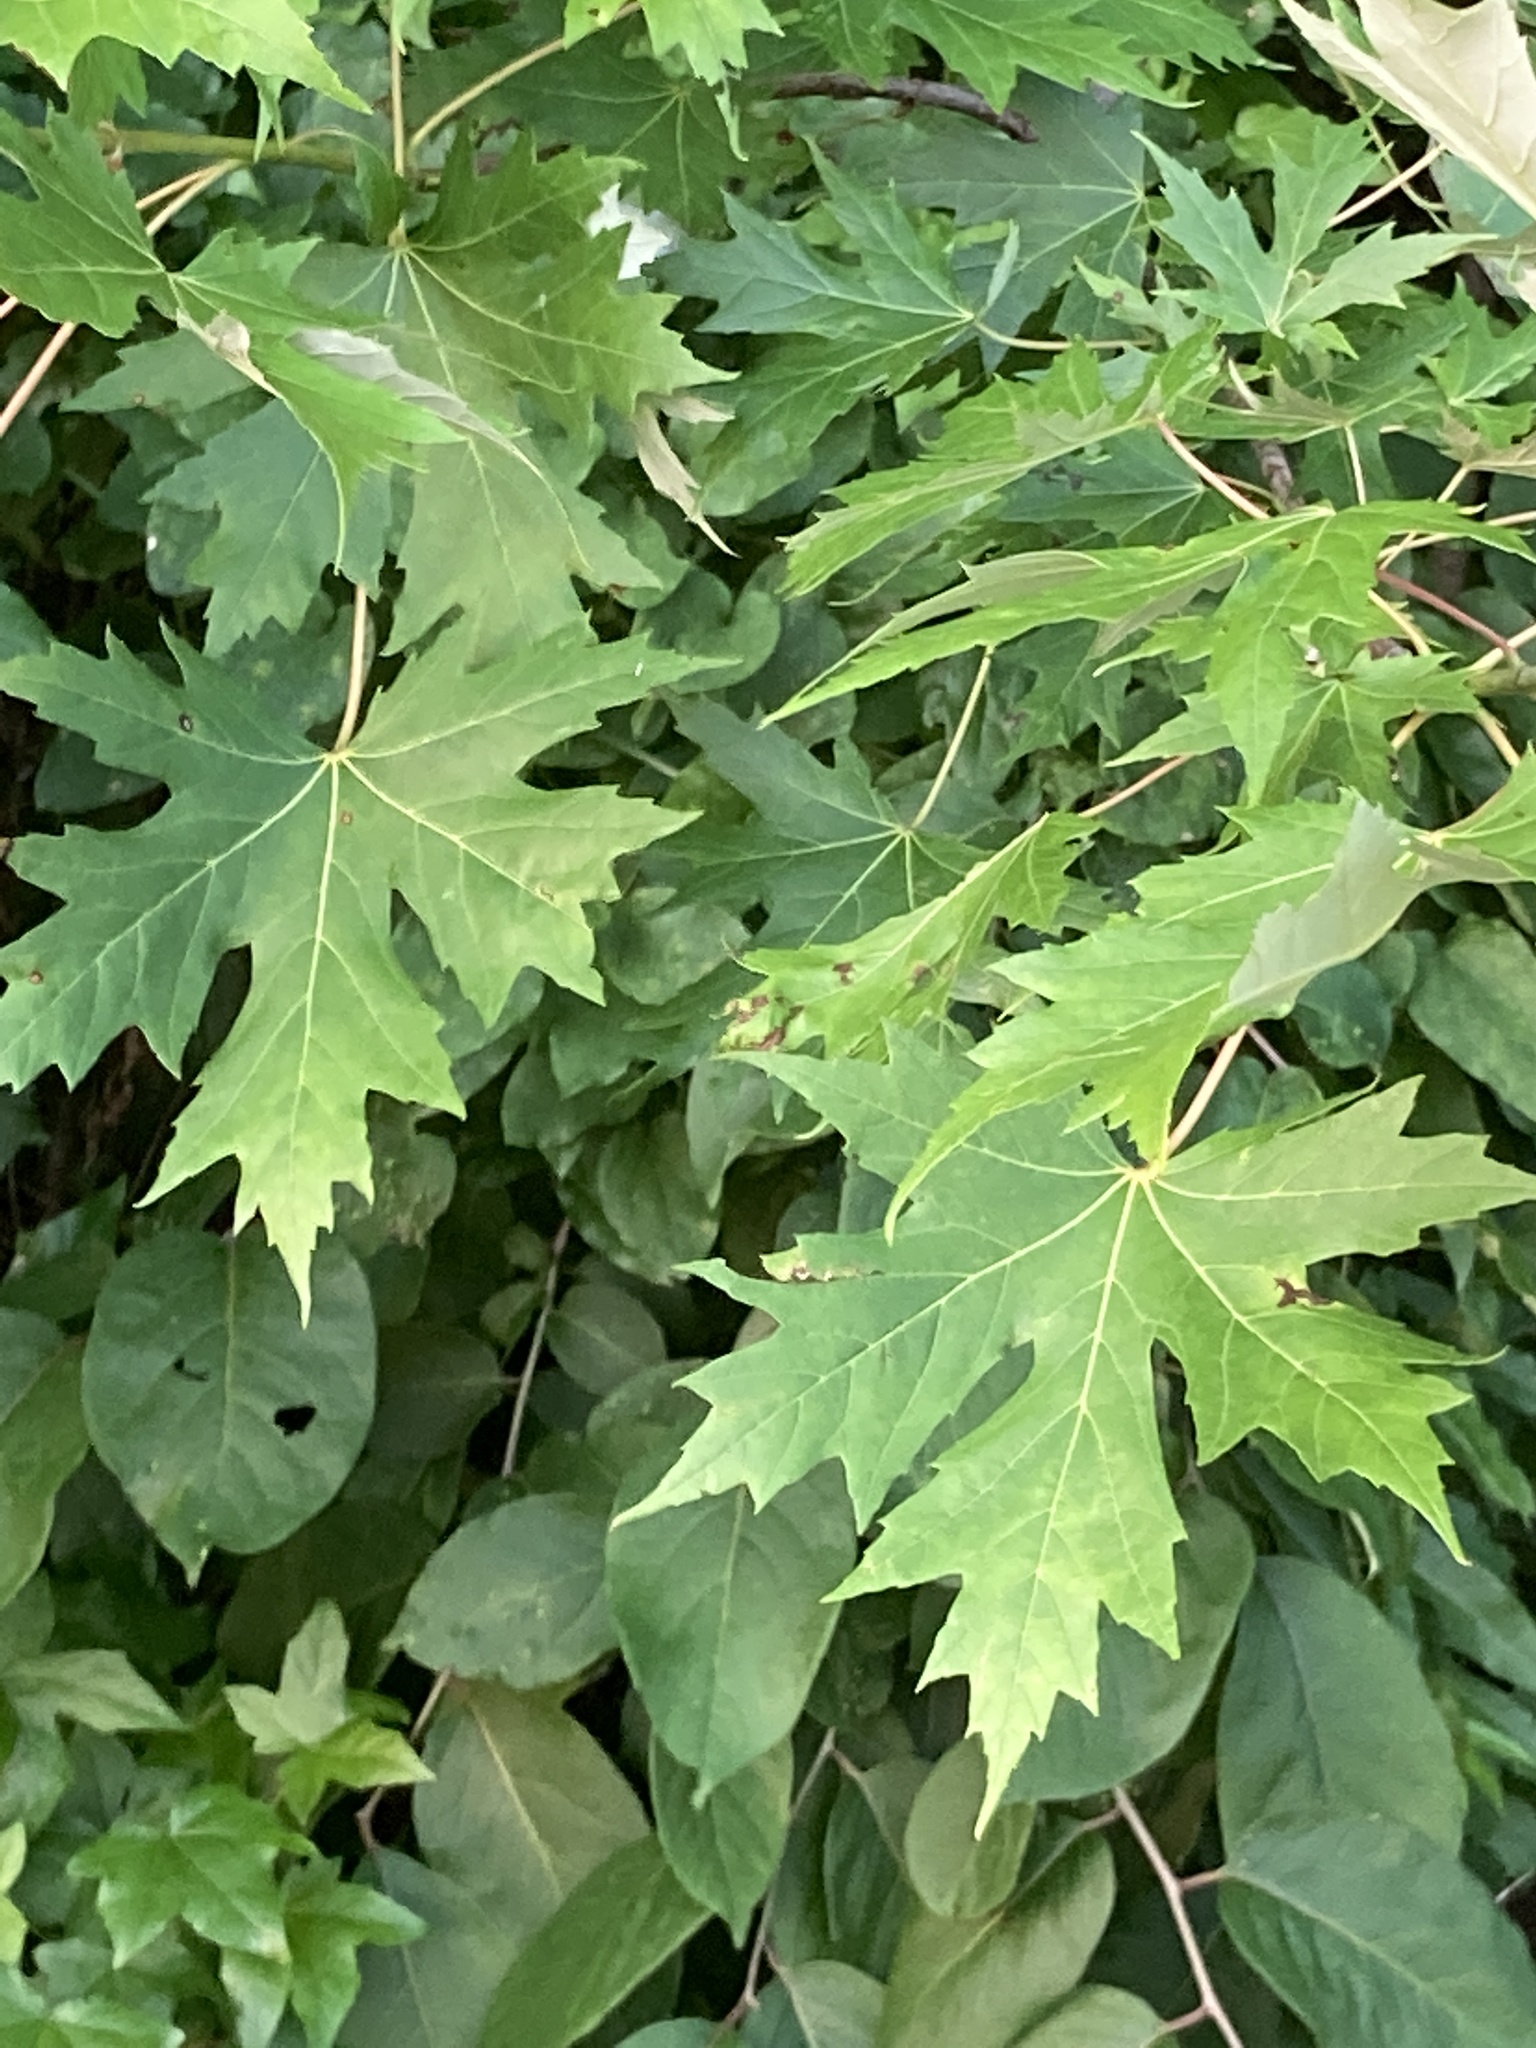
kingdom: Plantae
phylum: Tracheophyta
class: Magnoliopsida
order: Sapindales
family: Sapindaceae
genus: Acer
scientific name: Acer saccharinum
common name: Silver maple
